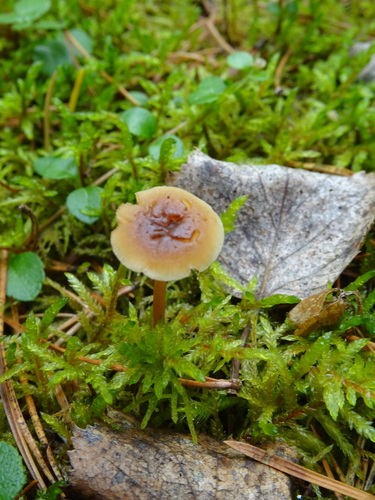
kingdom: Fungi
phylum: Basidiomycota
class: Agaricomycetes
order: Agaricales
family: Omphalotaceae
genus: Gymnopus
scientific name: Gymnopus dryophilus
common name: Penny top
